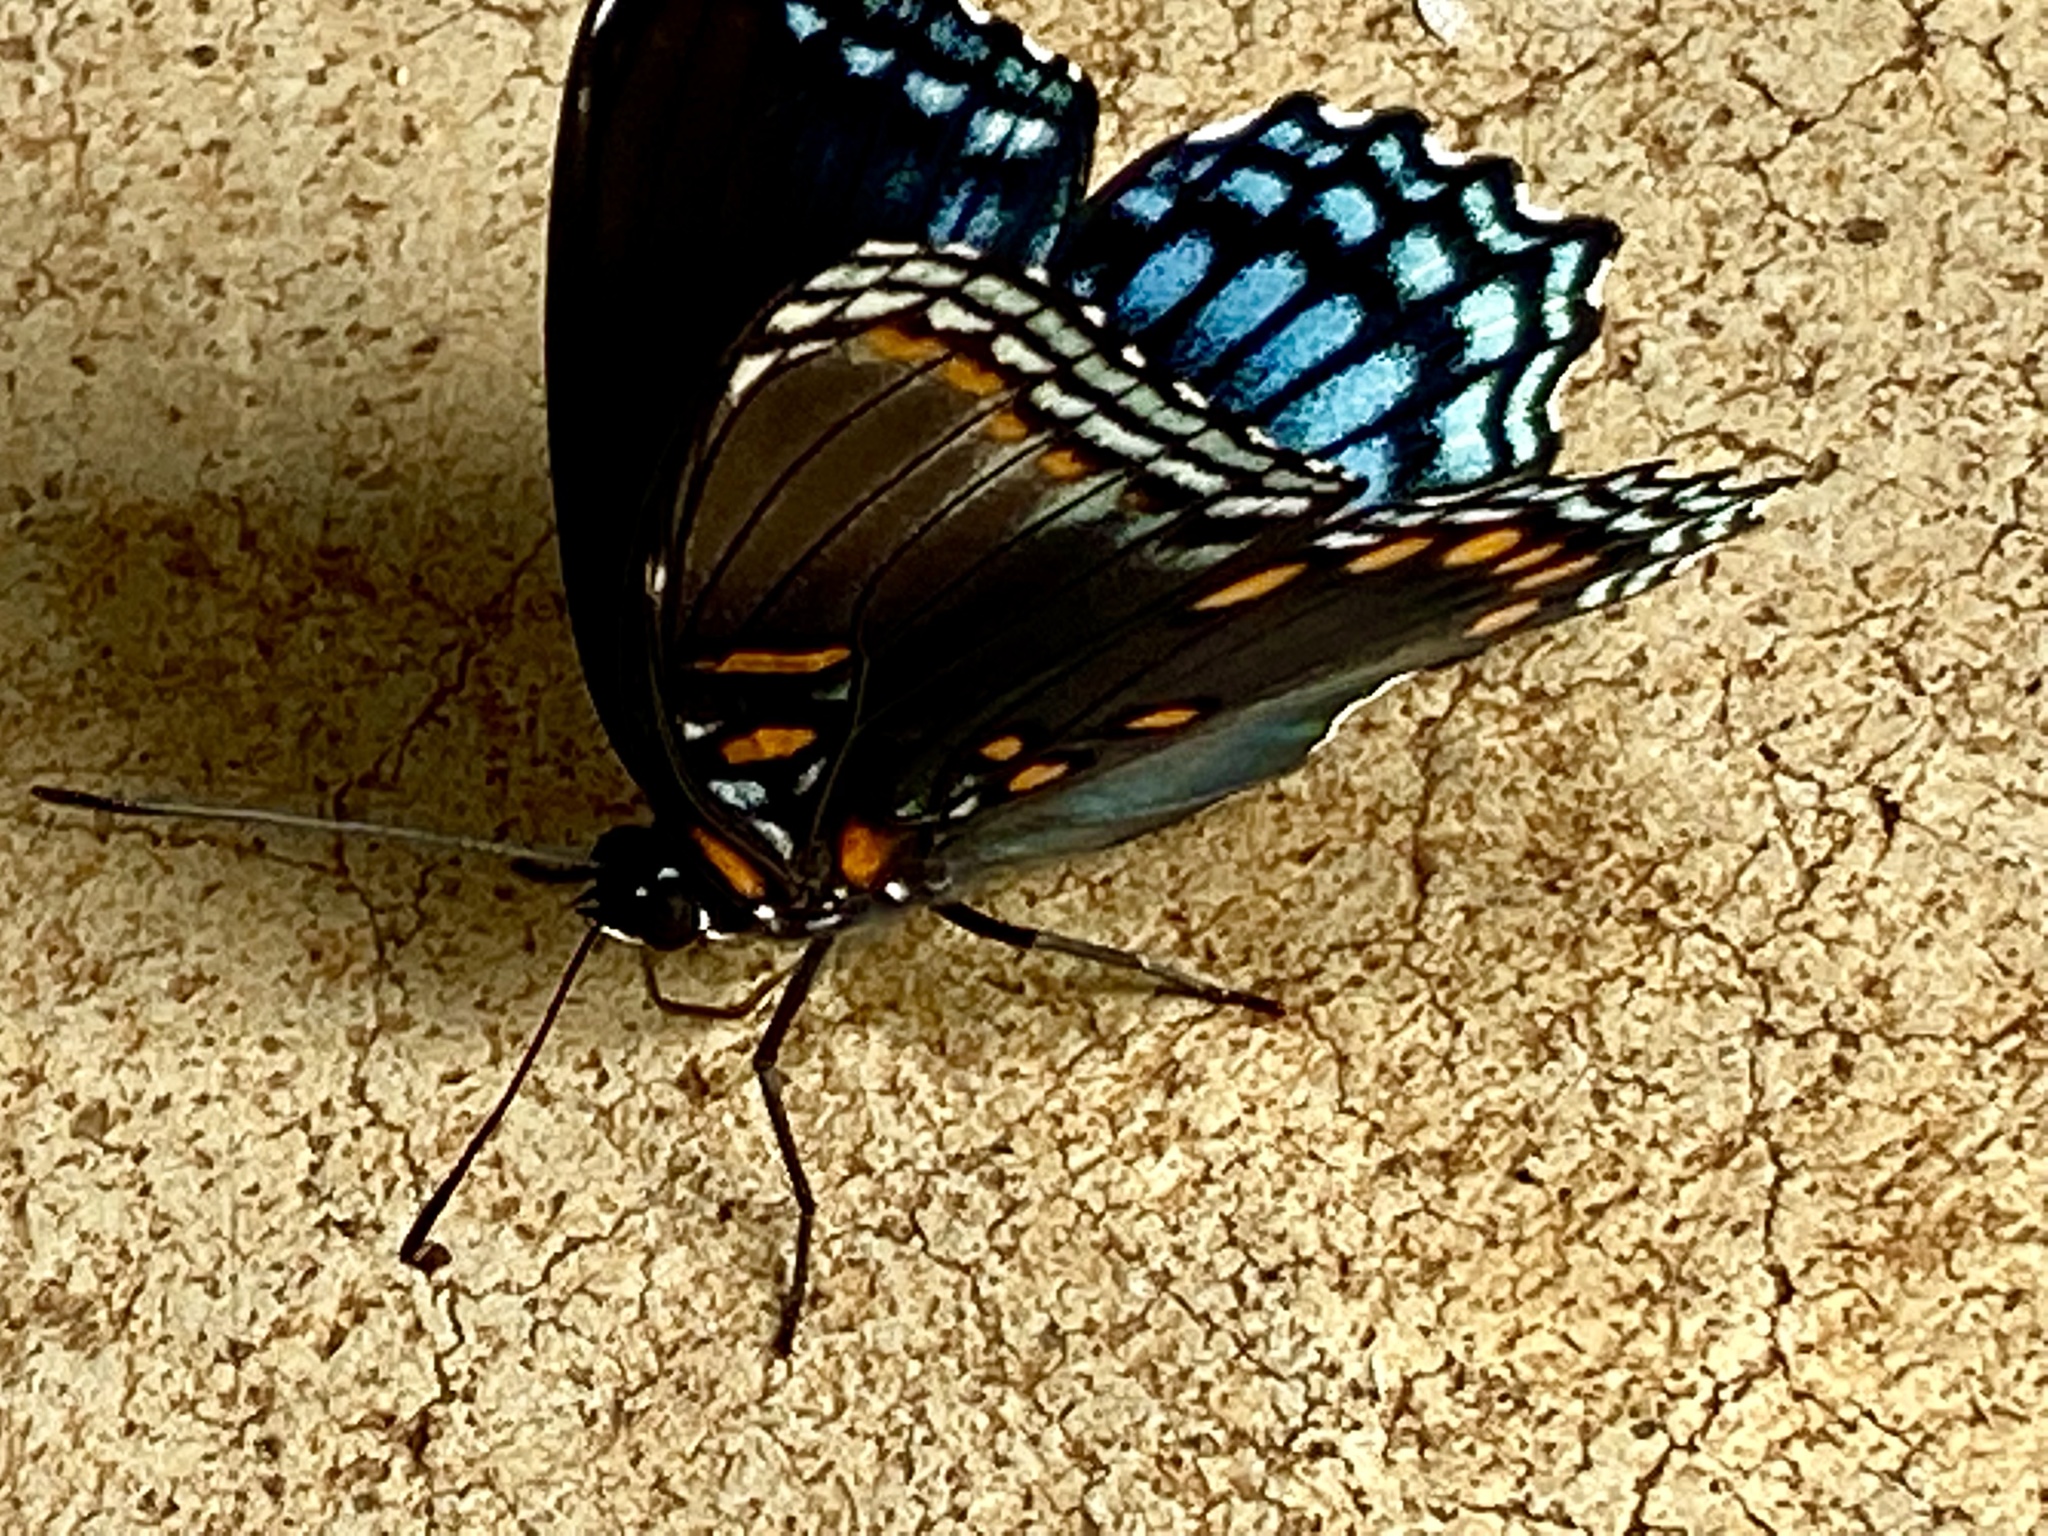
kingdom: Animalia
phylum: Arthropoda
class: Insecta
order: Lepidoptera
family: Nymphalidae
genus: Limenitis
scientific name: Limenitis astyanax
